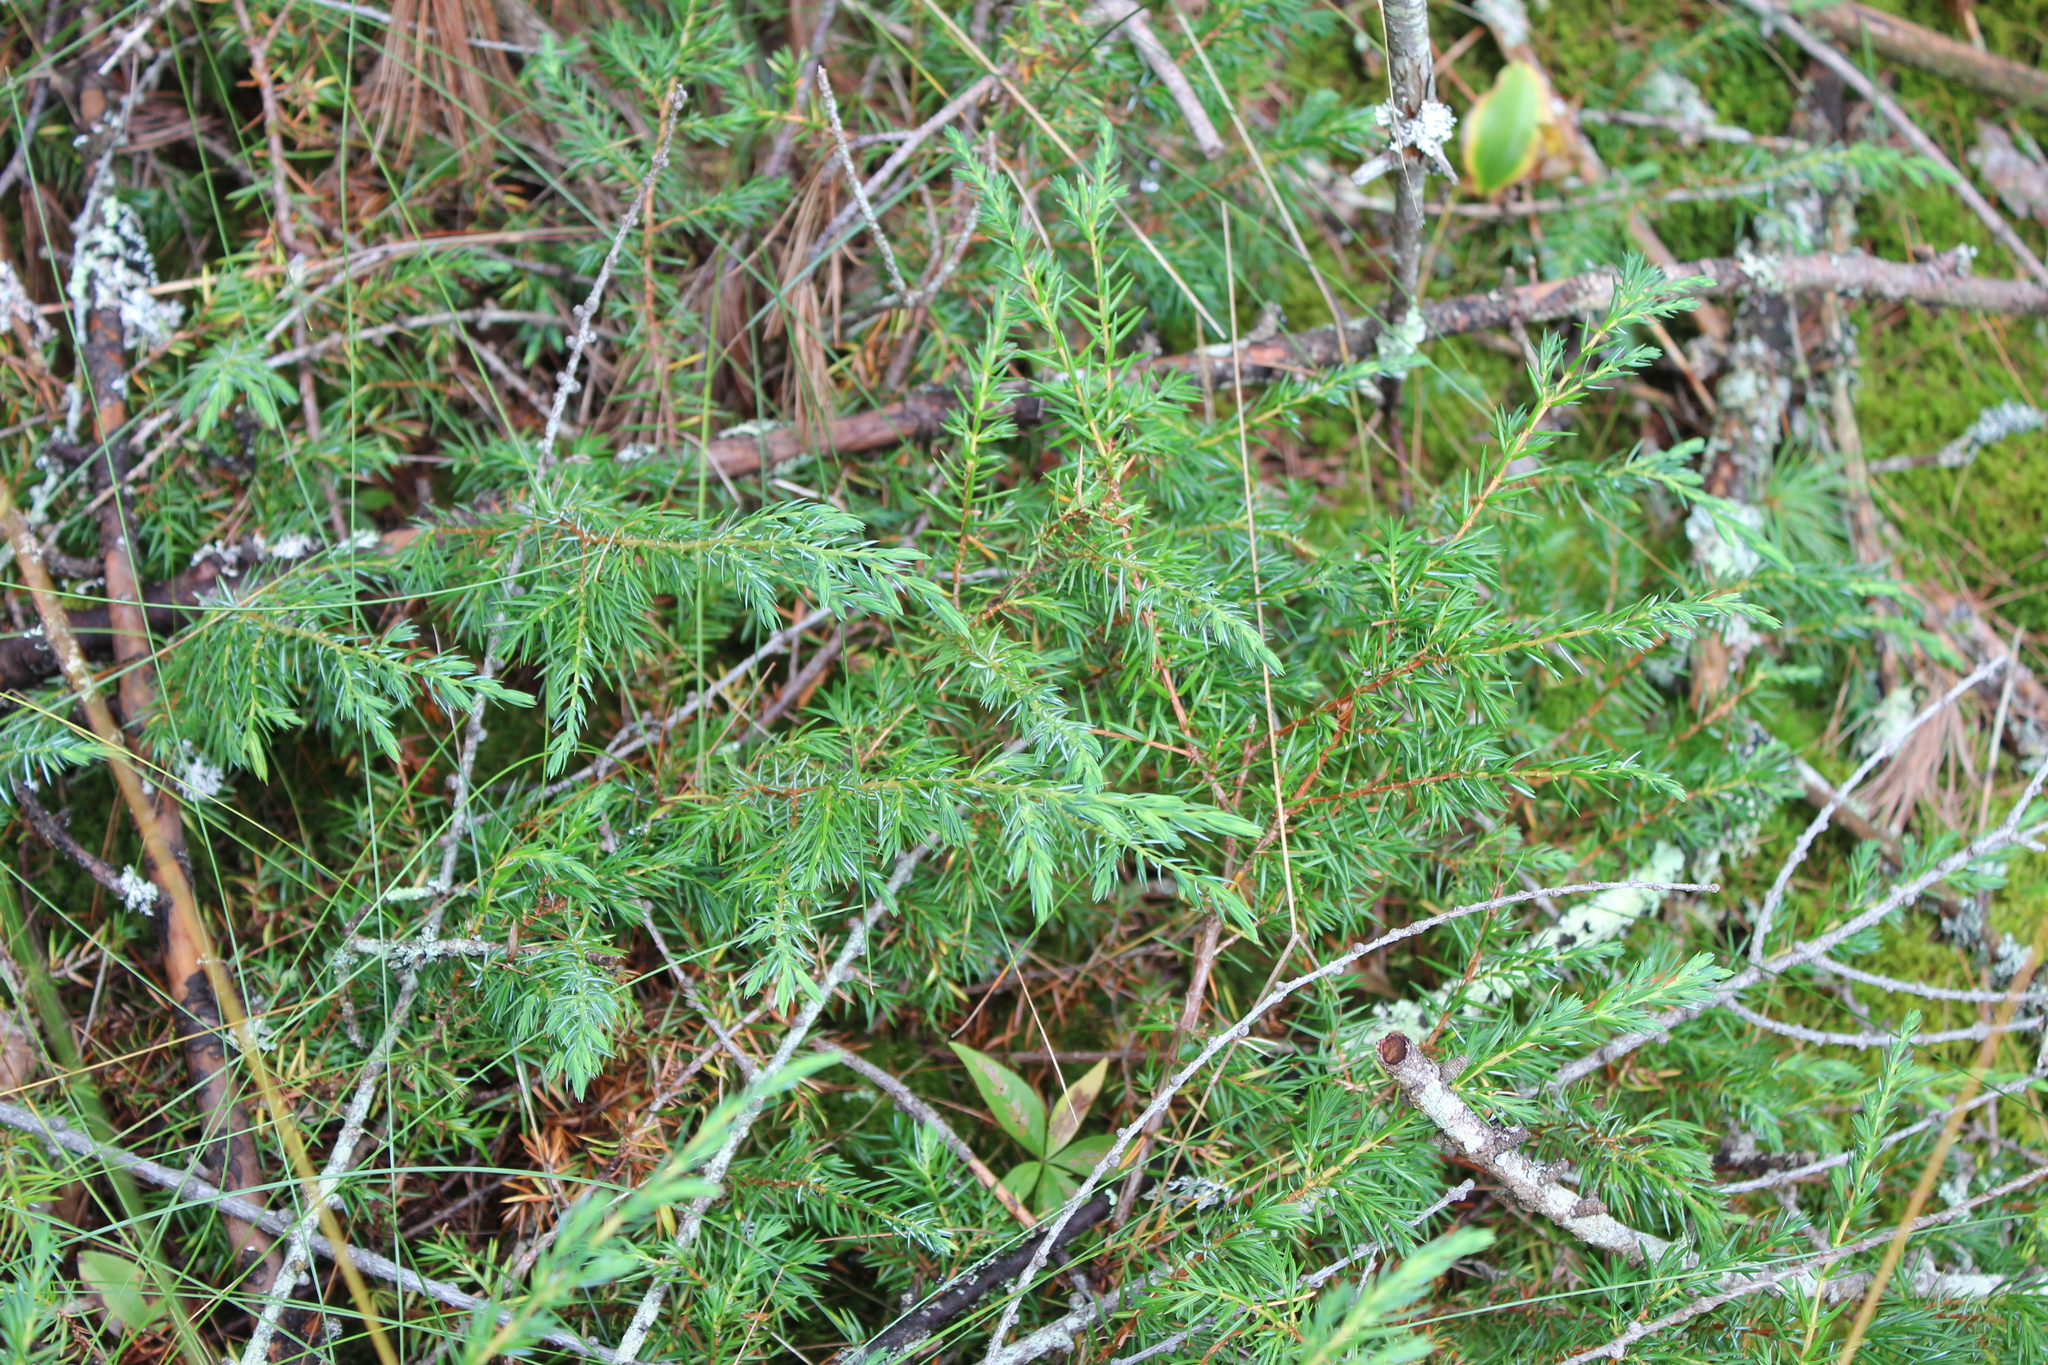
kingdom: Plantae
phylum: Tracheophyta
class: Pinopsida
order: Pinales
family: Cupressaceae
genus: Juniperus
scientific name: Juniperus communis
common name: Common juniper
